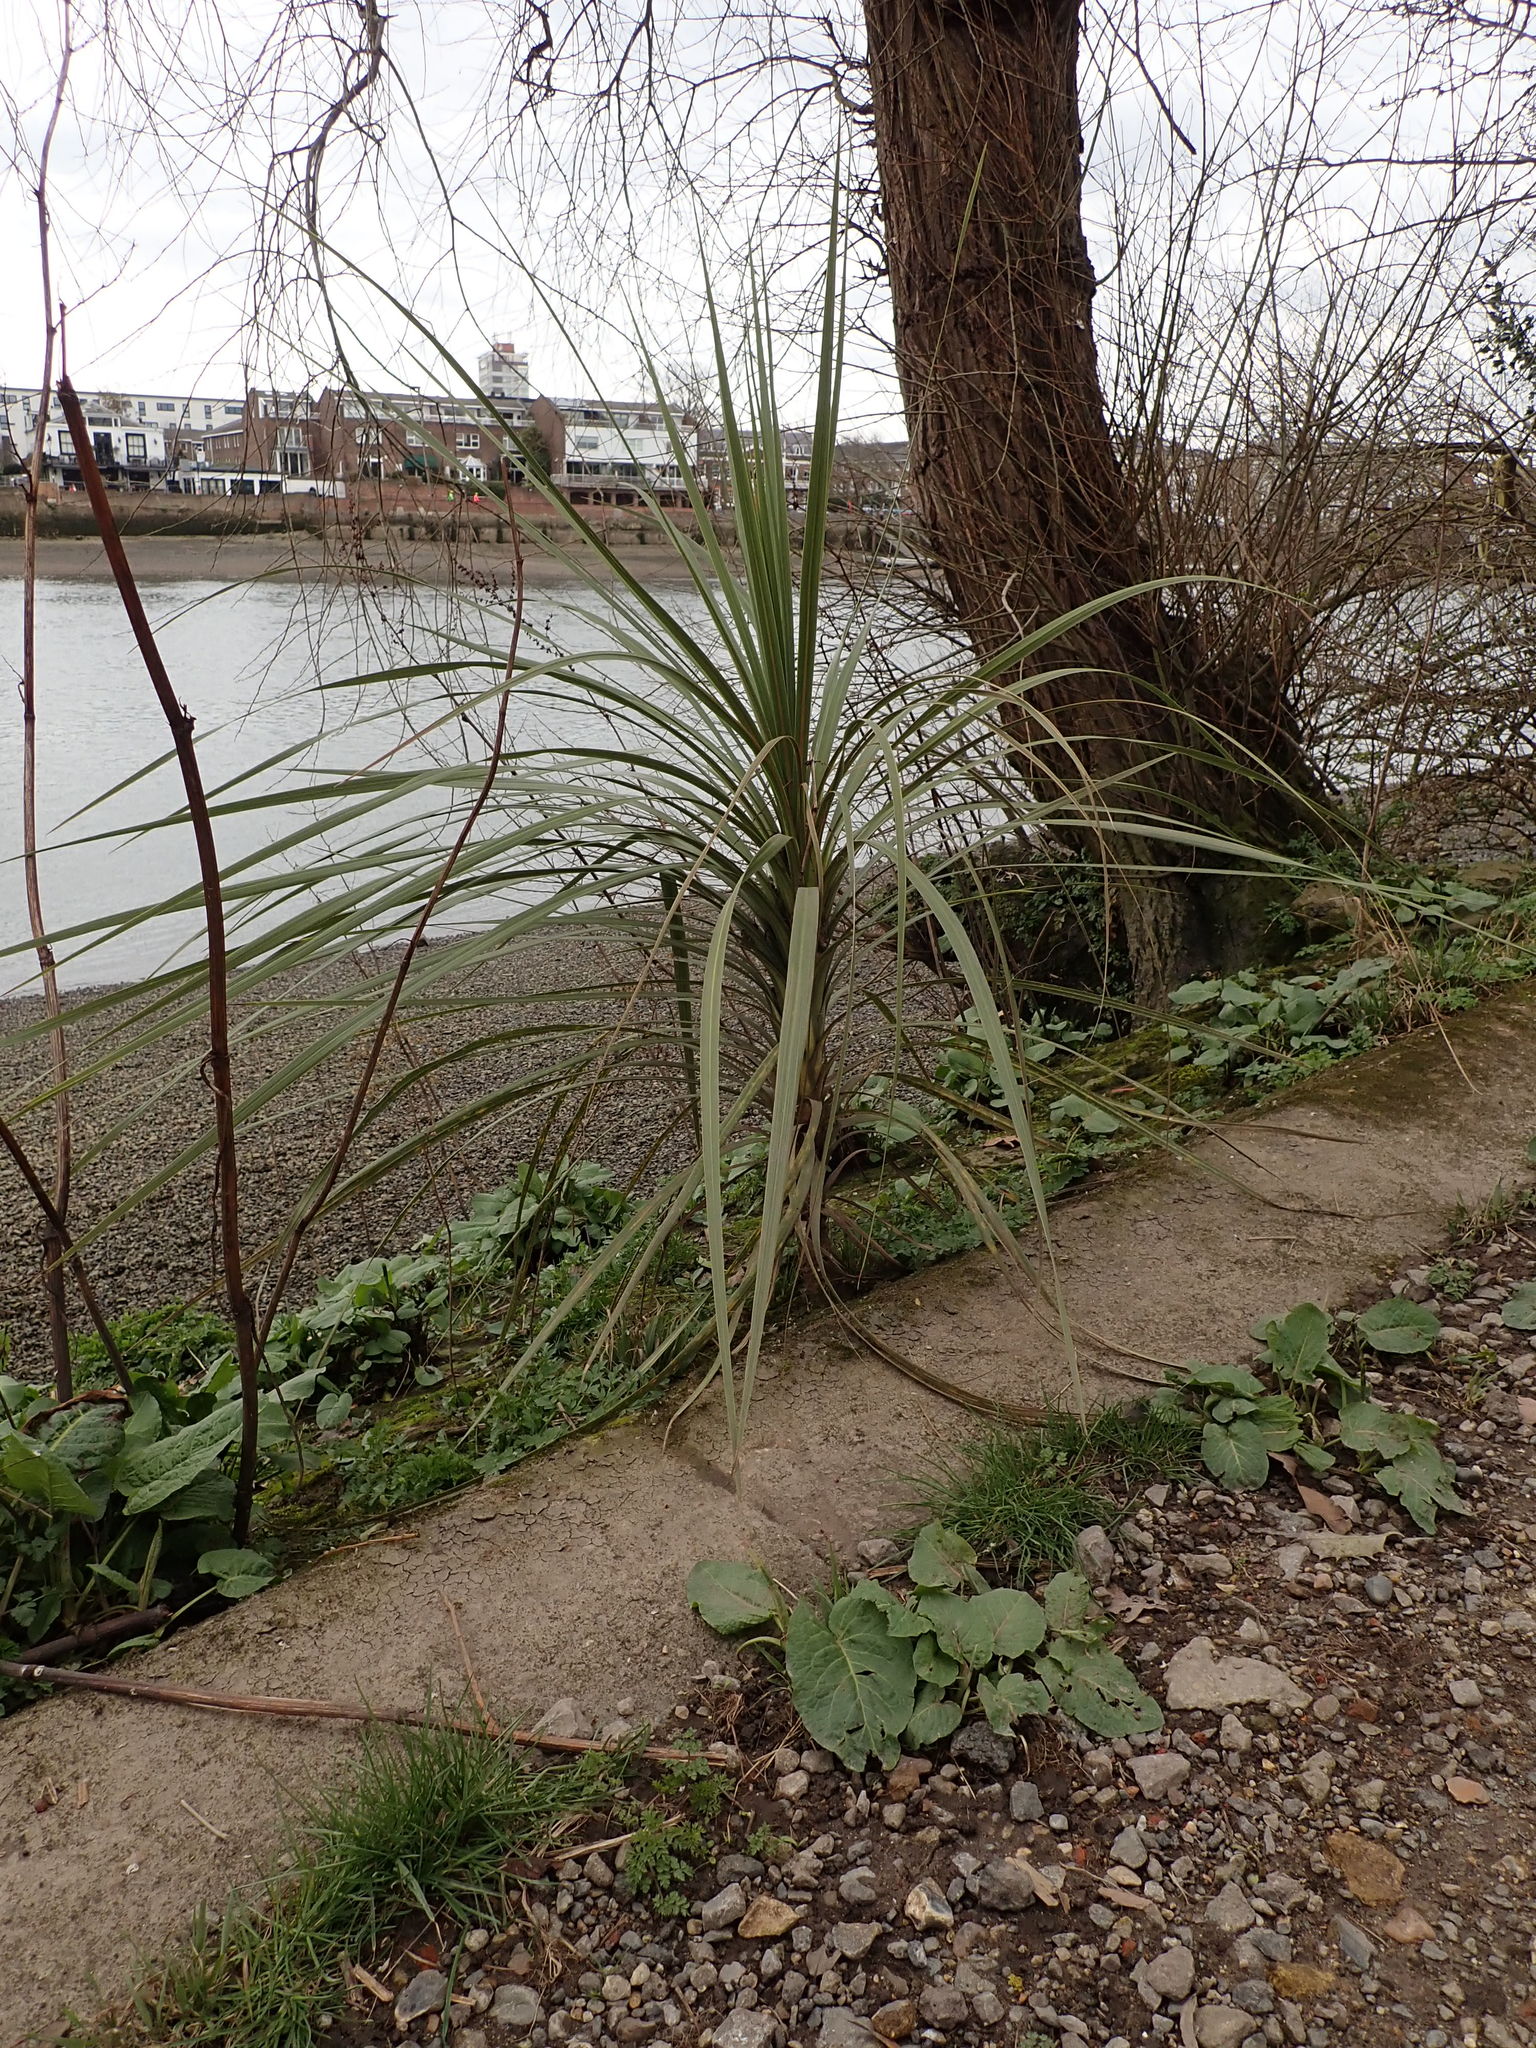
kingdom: Plantae
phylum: Tracheophyta
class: Liliopsida
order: Asparagales
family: Asparagaceae
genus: Cordyline
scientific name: Cordyline australis
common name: Cabbage-palm
